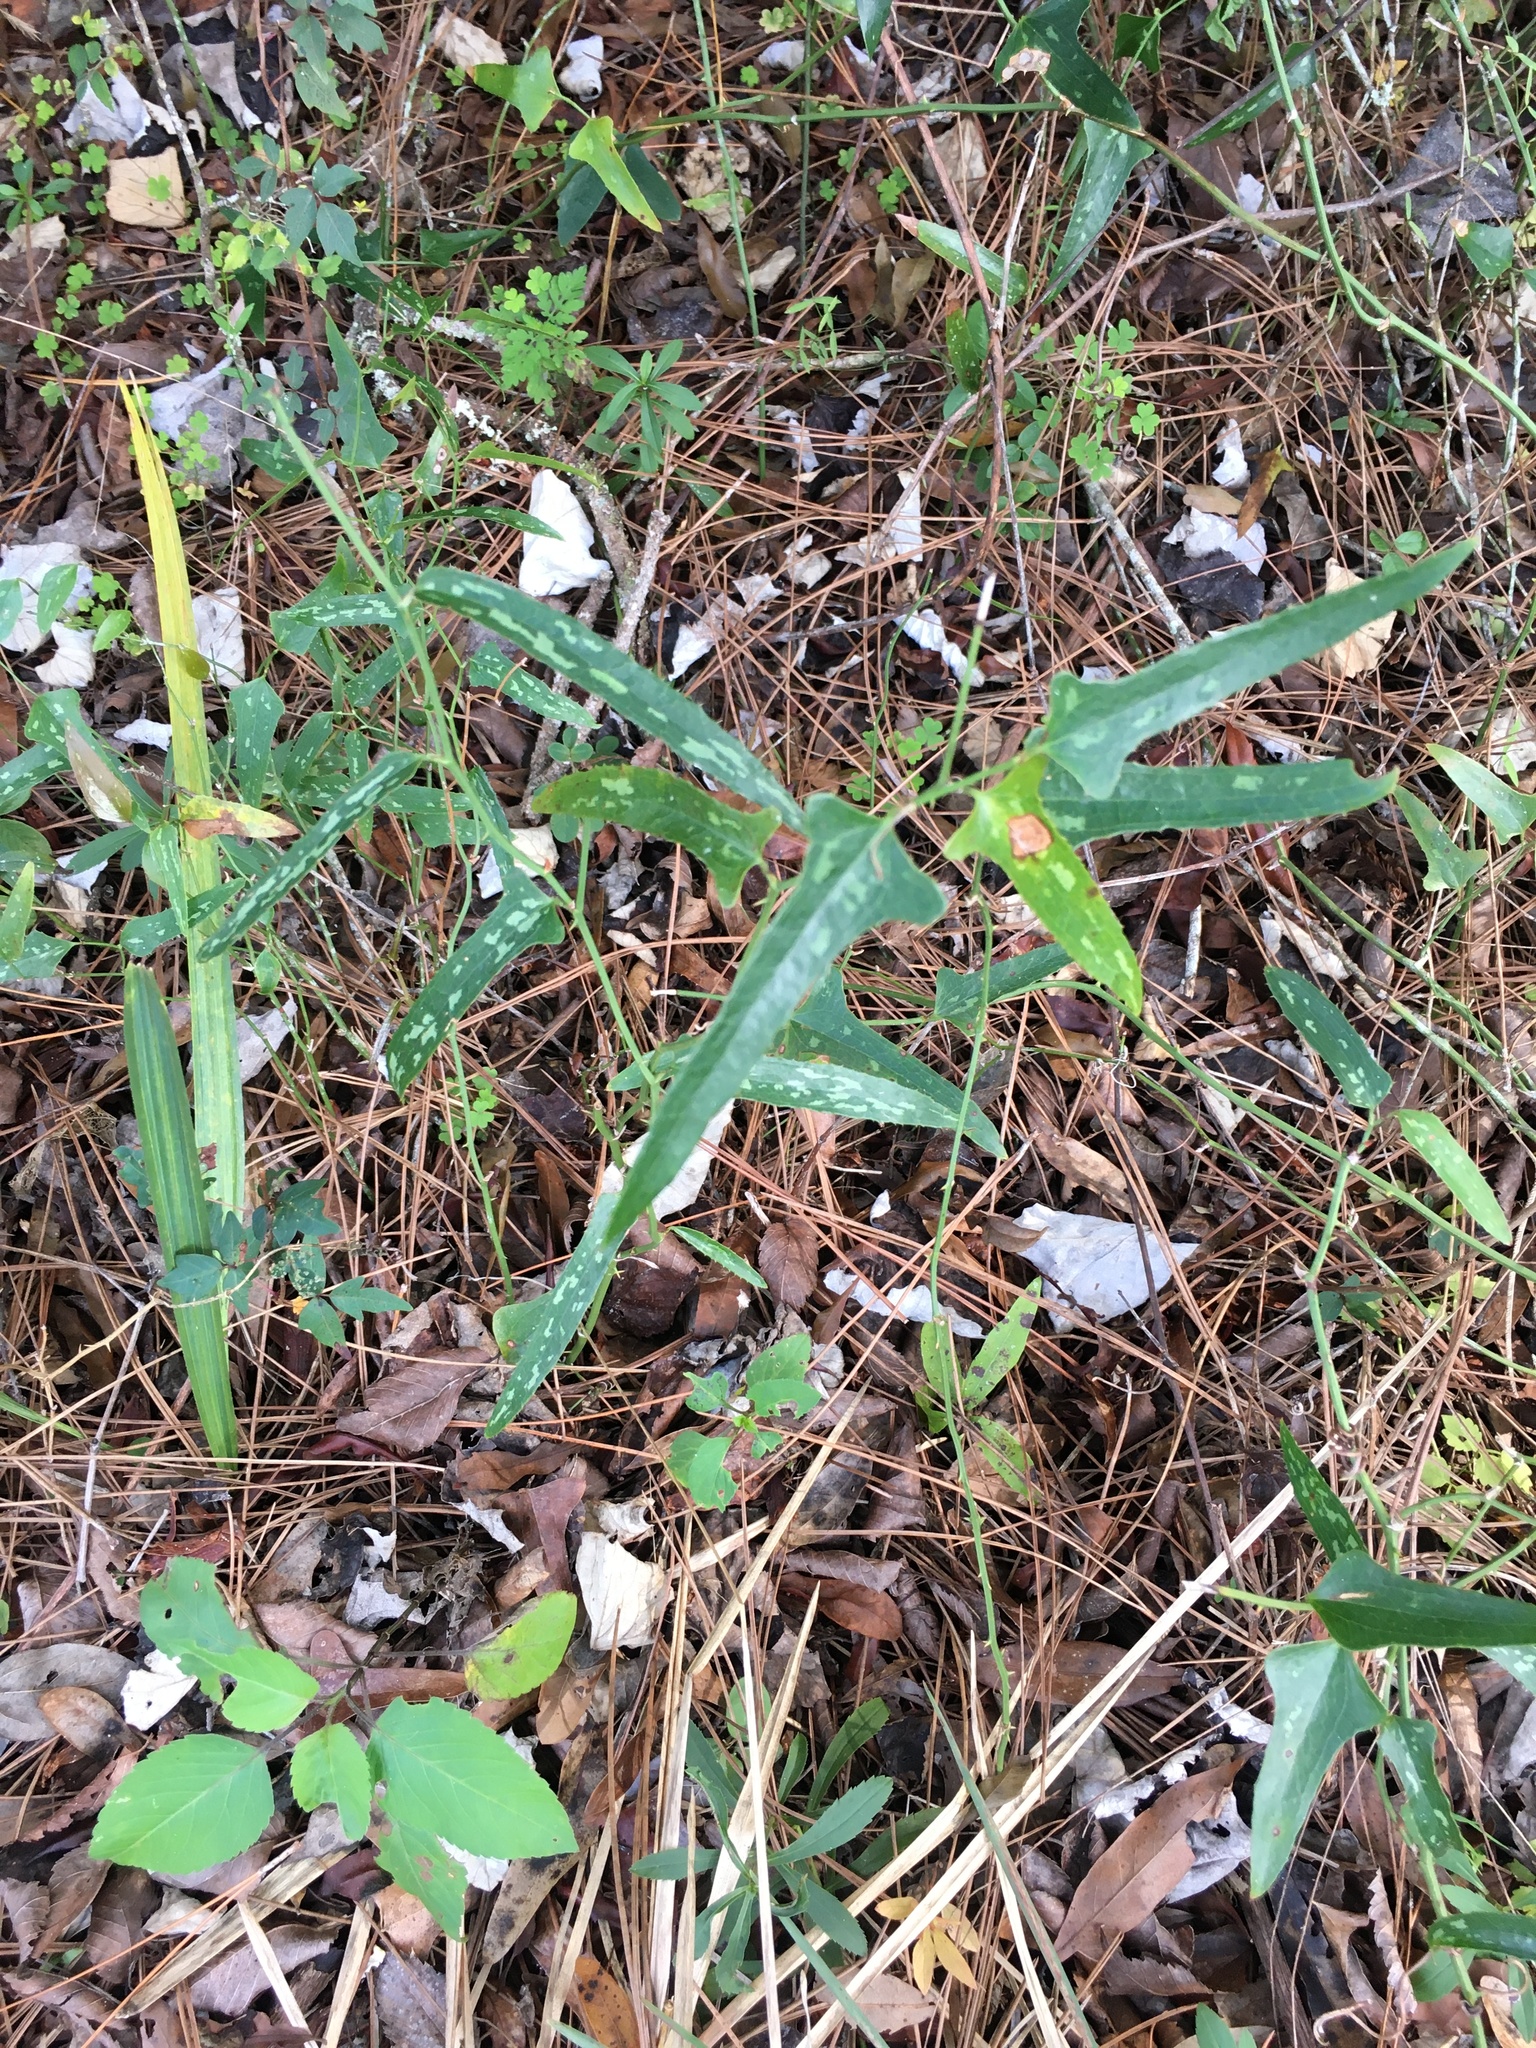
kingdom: Plantae
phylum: Tracheophyta
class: Liliopsida
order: Liliales
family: Smilacaceae
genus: Smilax
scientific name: Smilax bona-nox
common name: Catbrier
